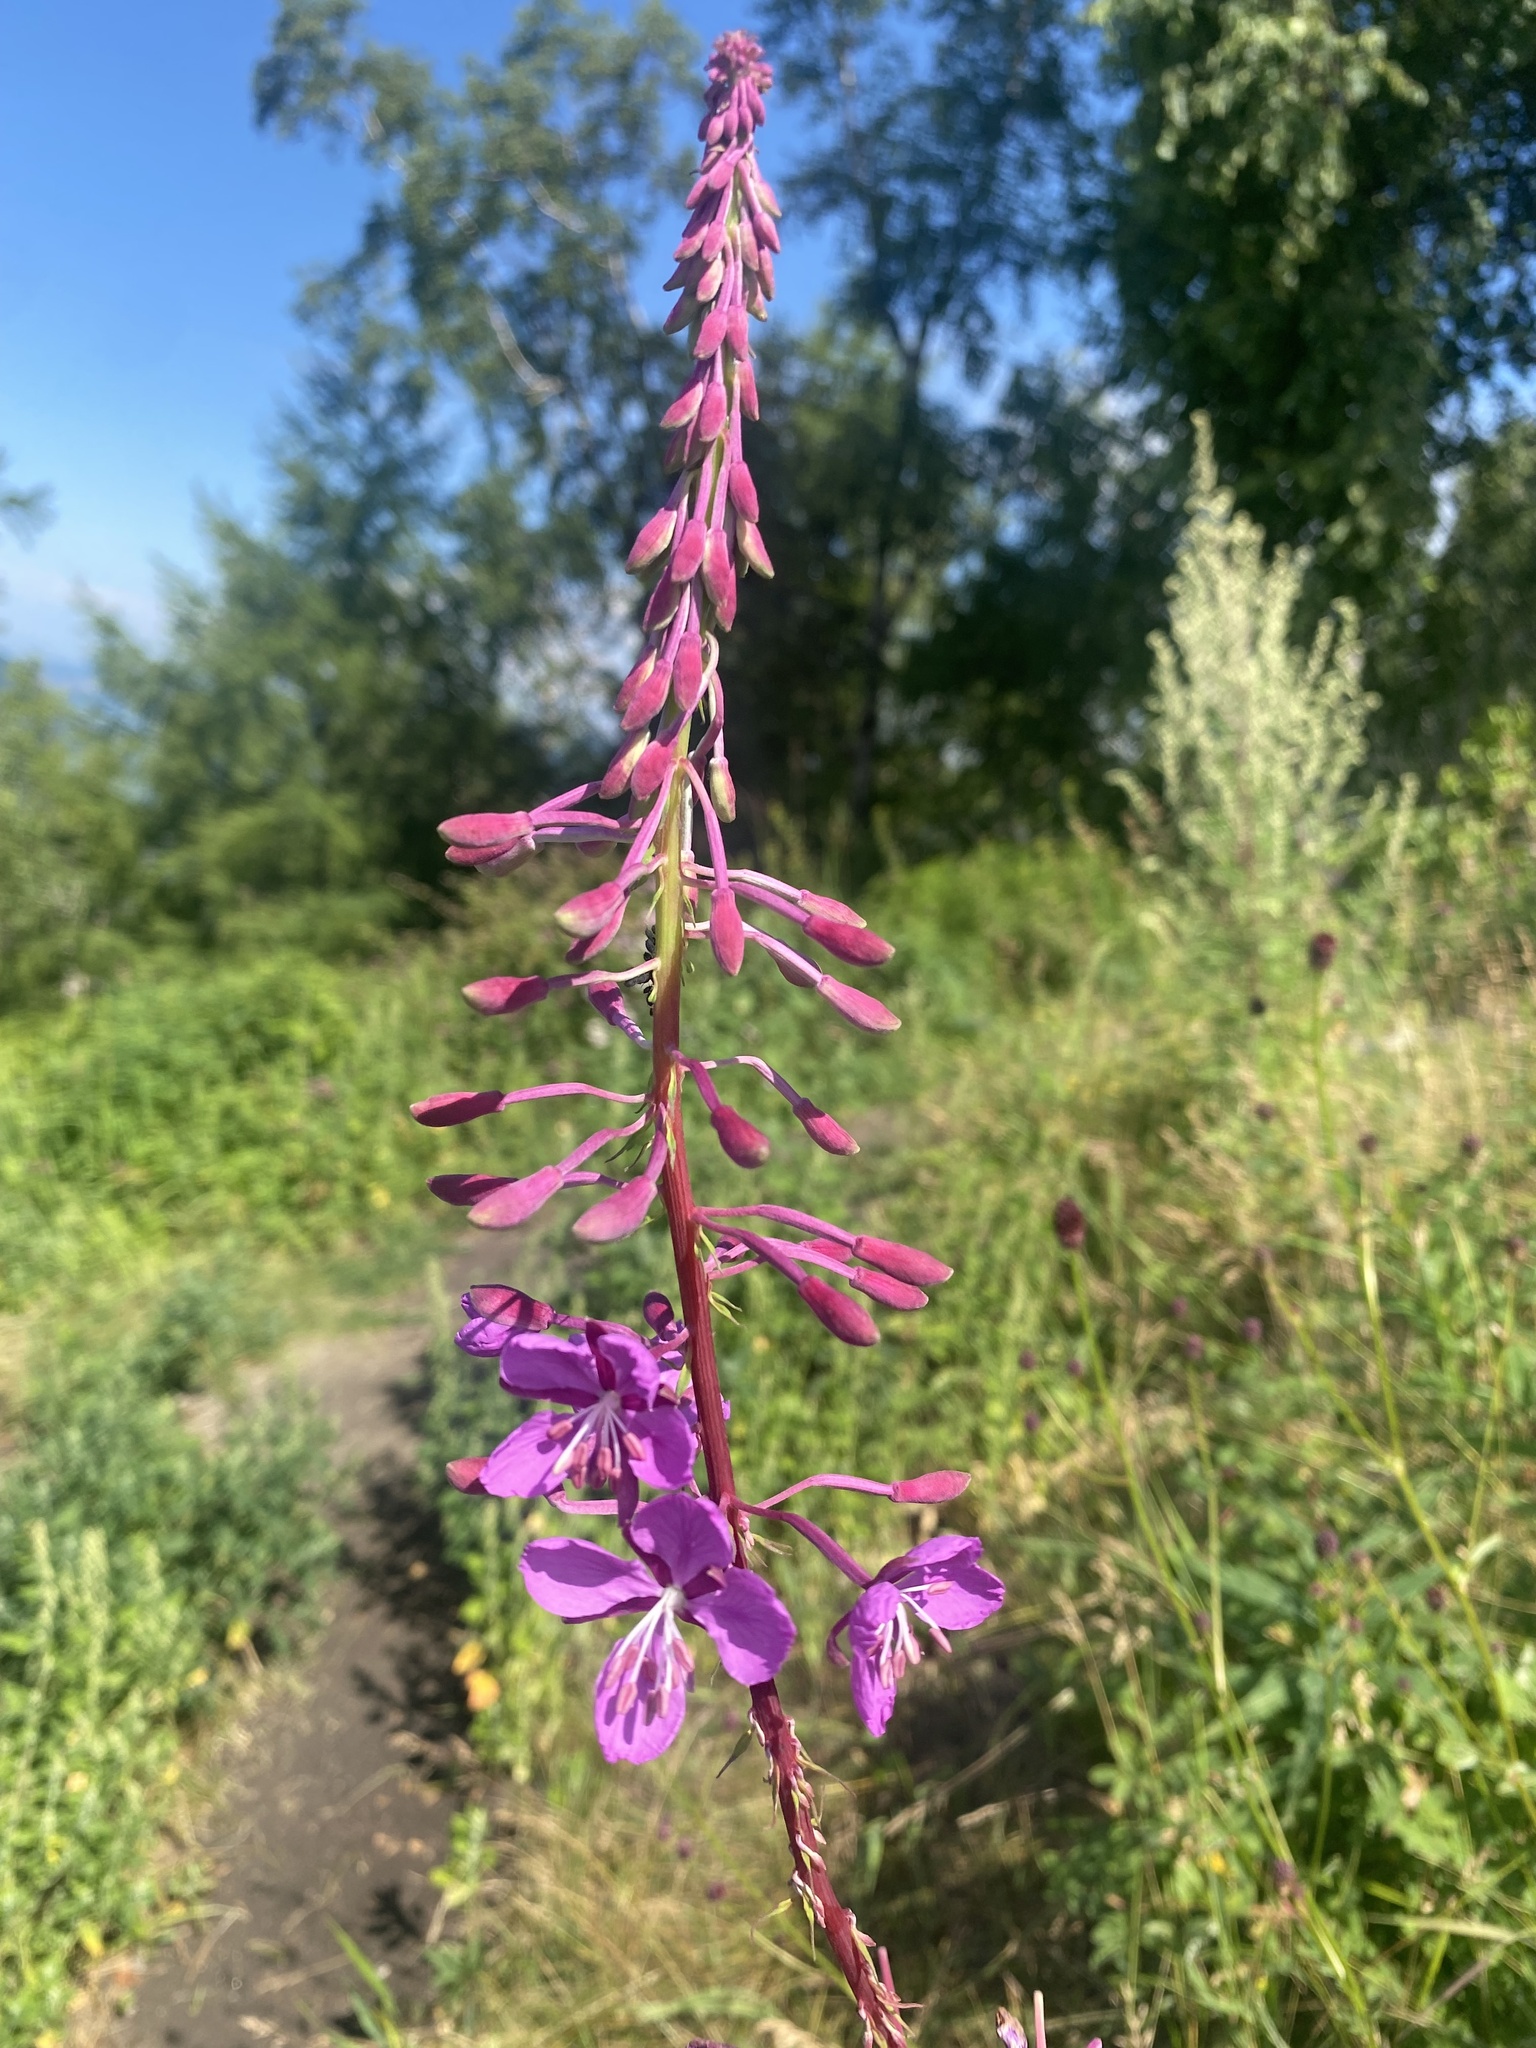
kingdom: Plantae
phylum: Tracheophyta
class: Magnoliopsida
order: Myrtales
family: Onagraceae
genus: Chamaenerion
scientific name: Chamaenerion angustifolium
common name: Fireweed
